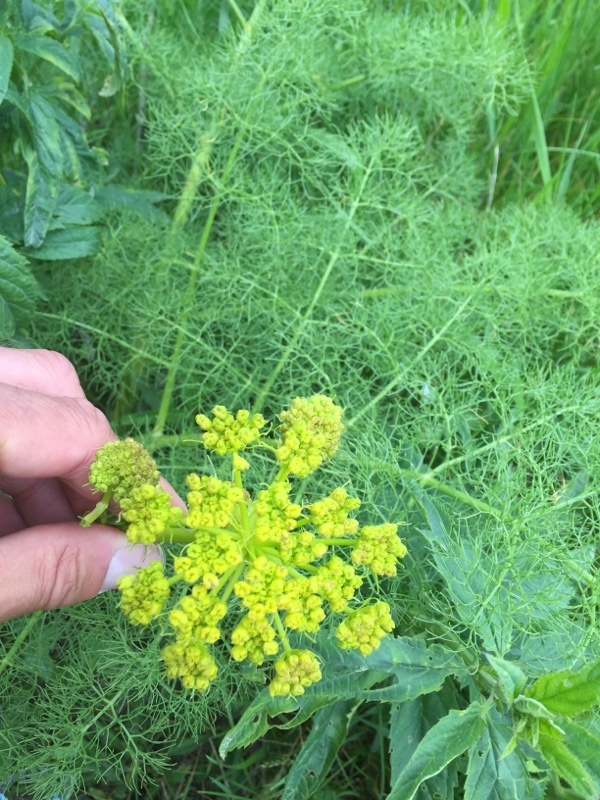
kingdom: Plantae
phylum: Tracheophyta
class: Magnoliopsida
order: Apiales
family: Apiaceae
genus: Prangos
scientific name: Prangos ferulacea
